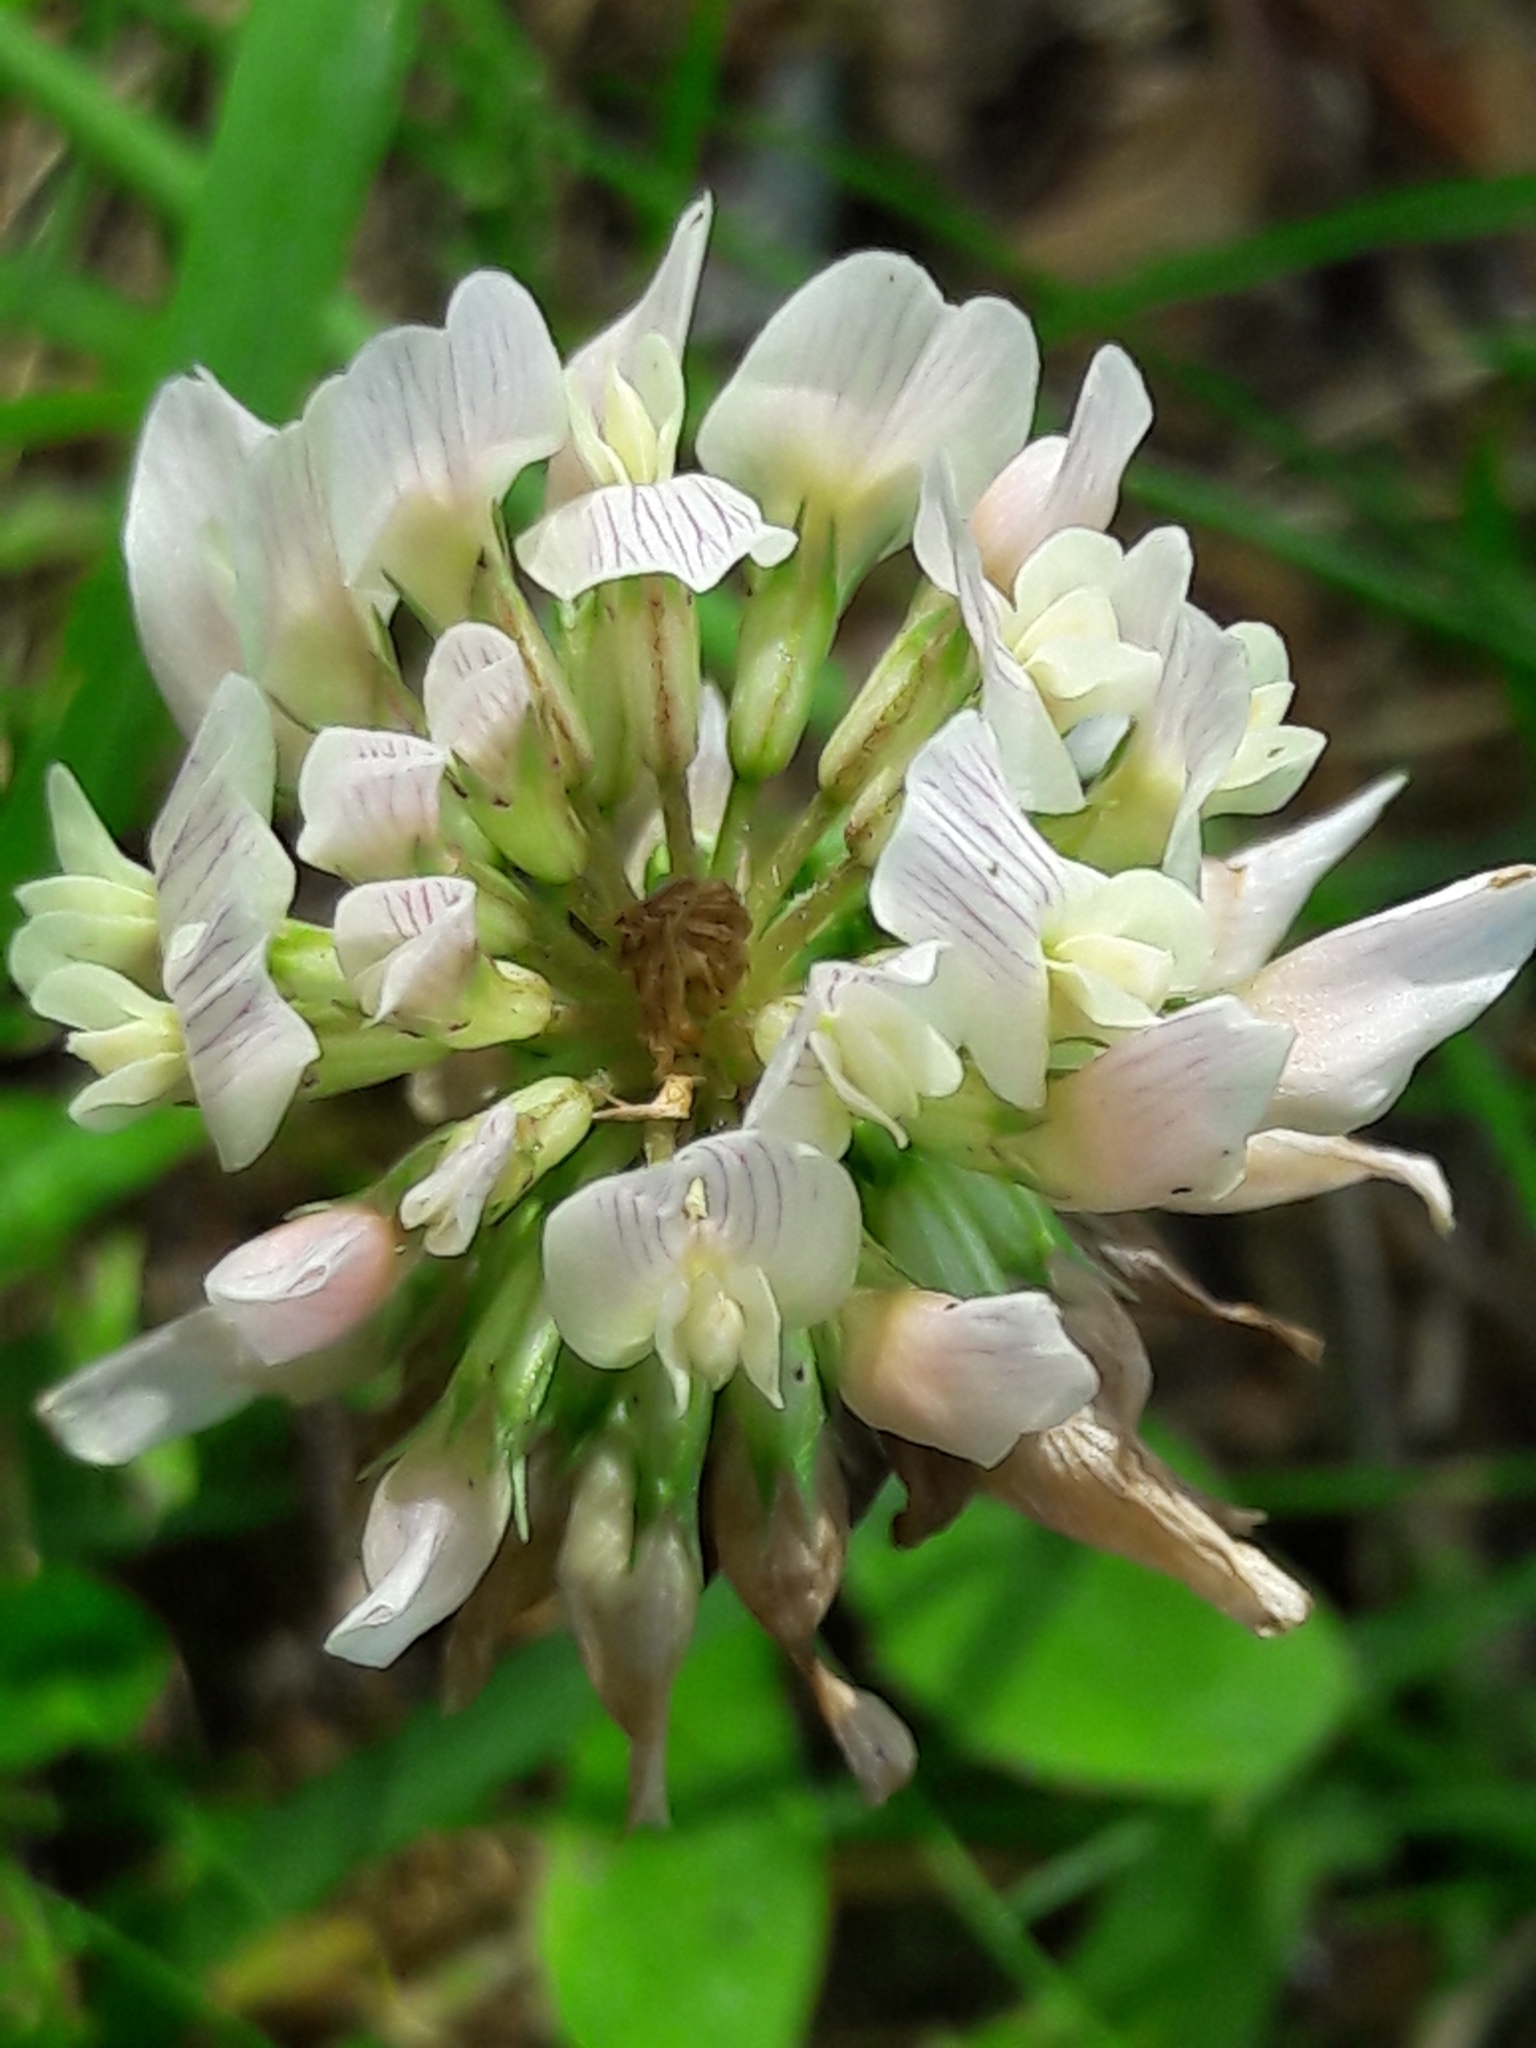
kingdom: Plantae
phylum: Tracheophyta
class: Magnoliopsida
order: Fabales
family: Fabaceae
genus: Trifolium
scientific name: Trifolium repens
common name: White clover
